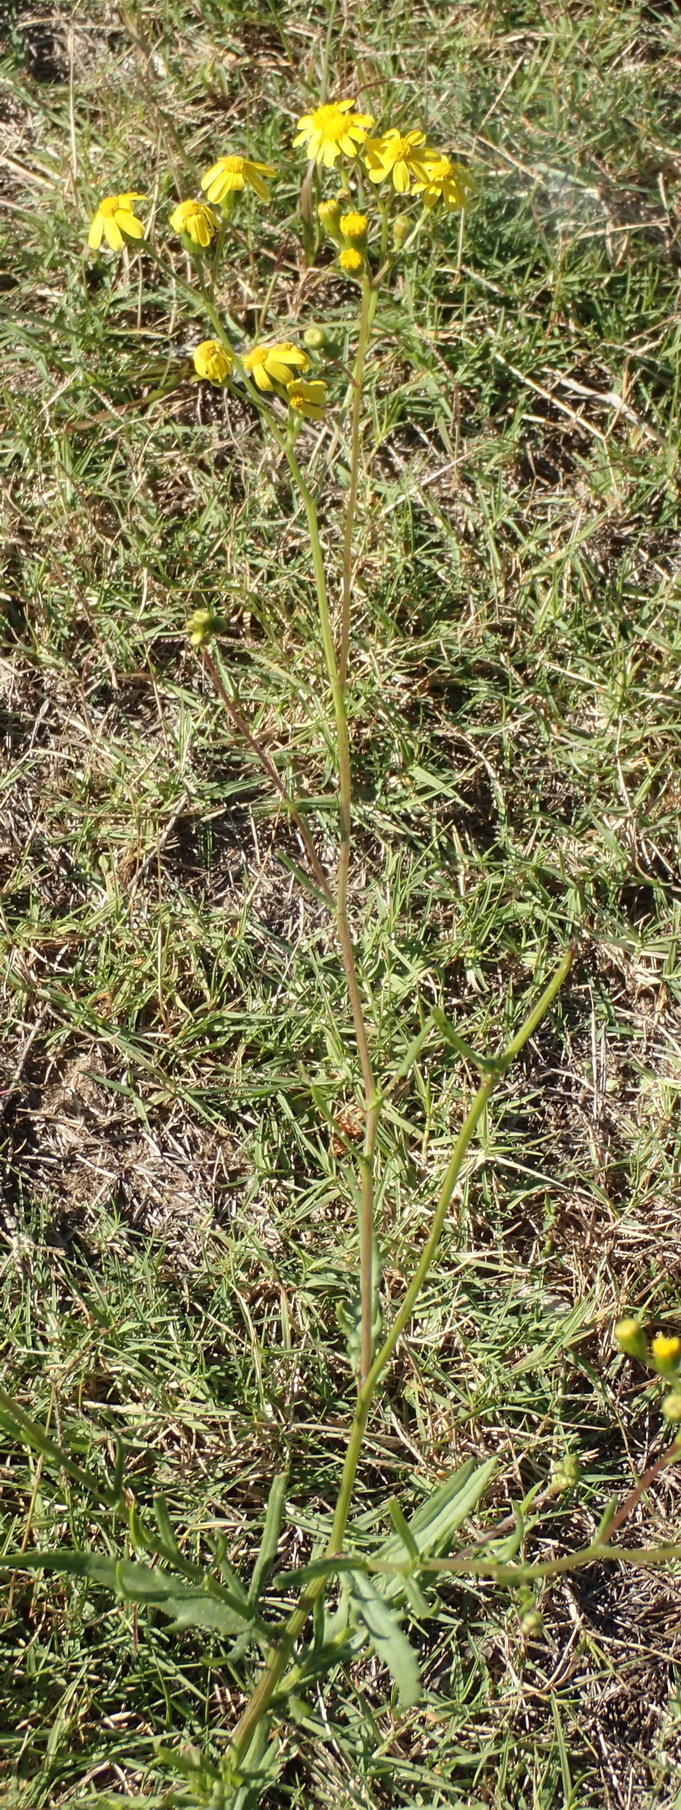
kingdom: Plantae
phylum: Tracheophyta
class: Magnoliopsida
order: Asterales
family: Asteraceae
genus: Senecio
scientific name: Senecio burchellii
